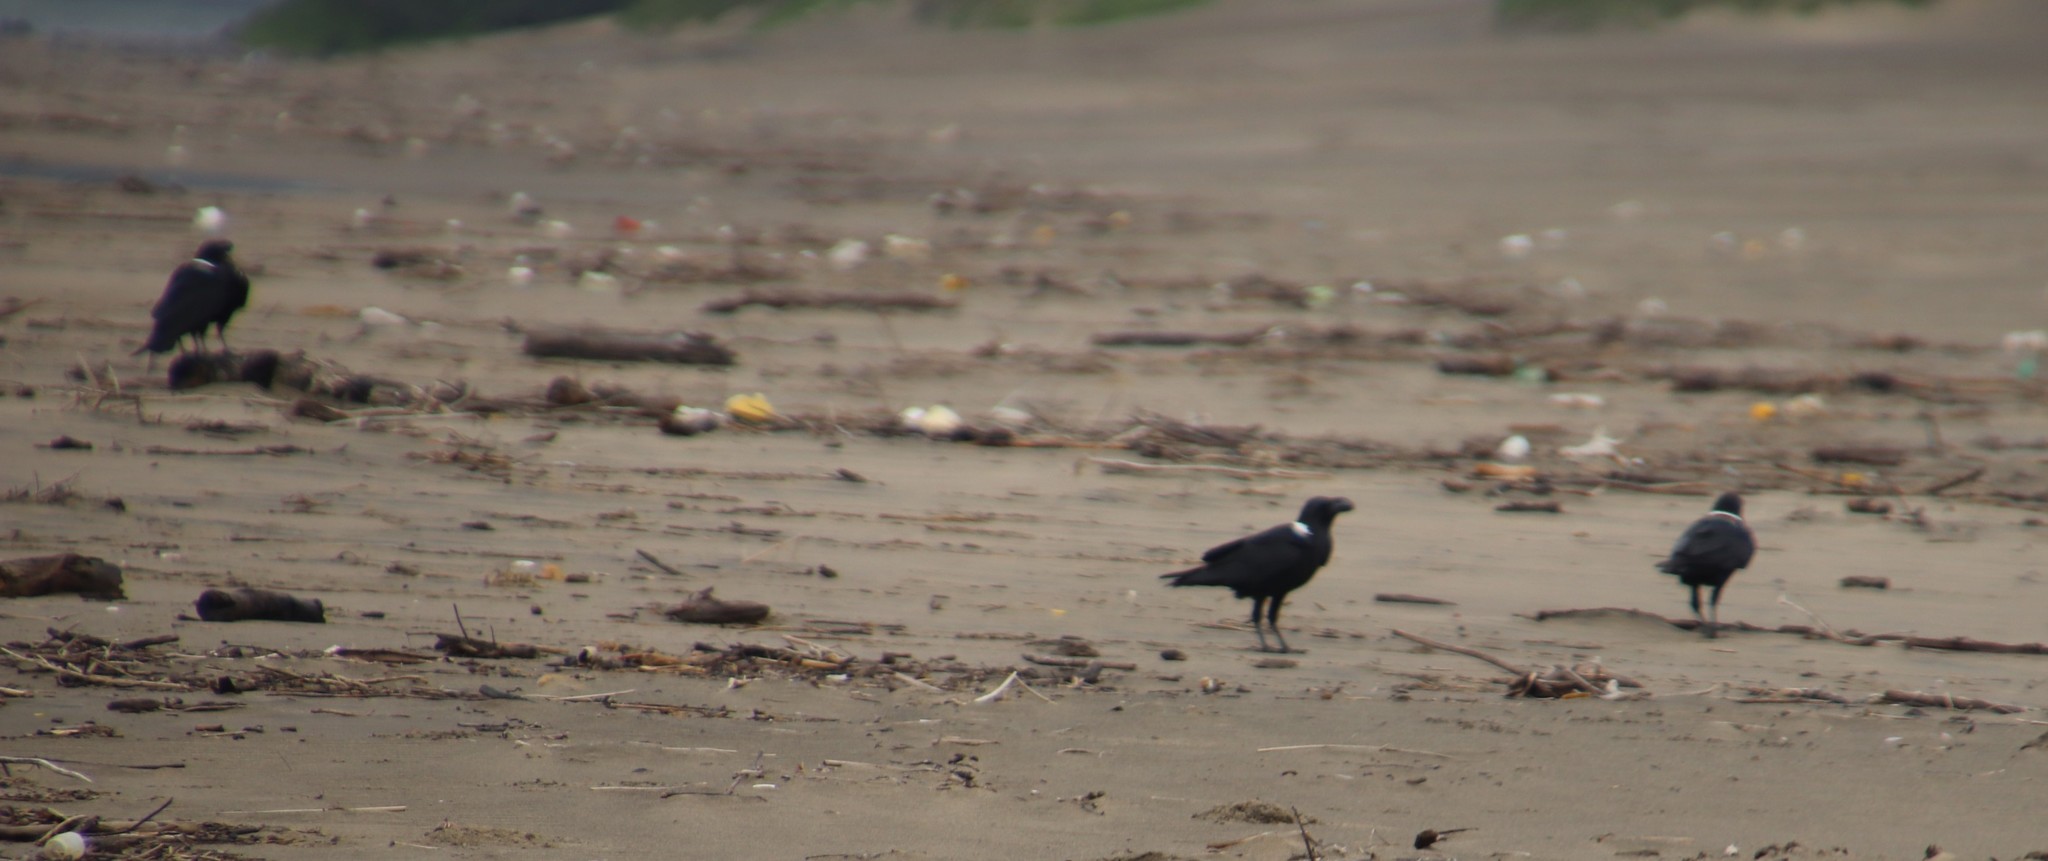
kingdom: Animalia
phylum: Chordata
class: Aves
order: Passeriformes
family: Corvidae
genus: Corvus
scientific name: Corvus albicollis
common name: White-necked raven
